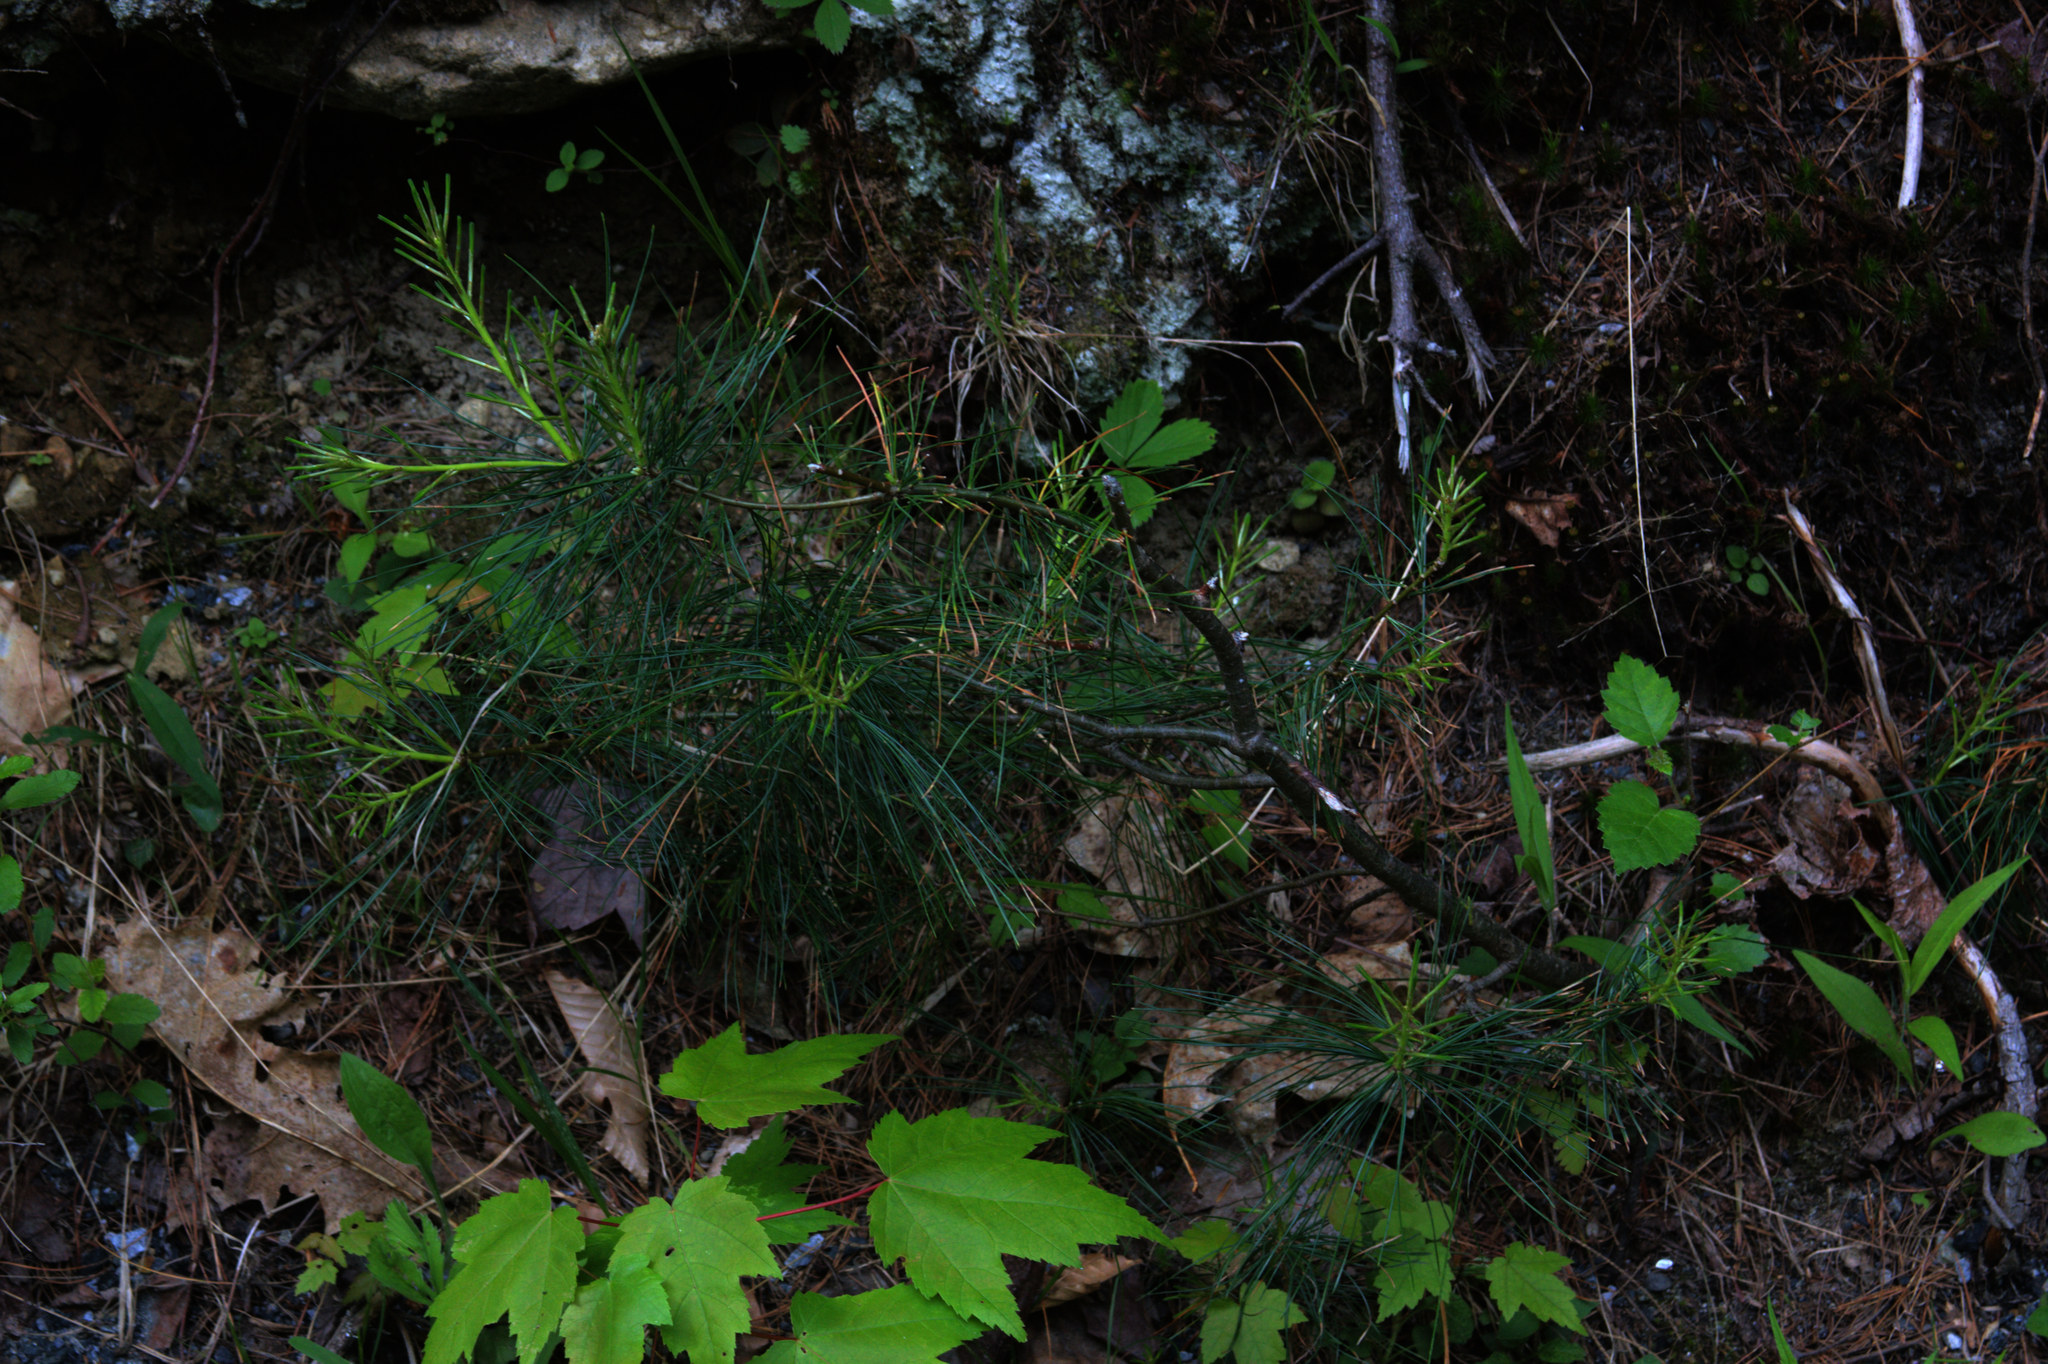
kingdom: Plantae
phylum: Tracheophyta
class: Pinopsida
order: Pinales
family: Pinaceae
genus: Pinus
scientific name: Pinus strobus
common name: Weymouth pine
